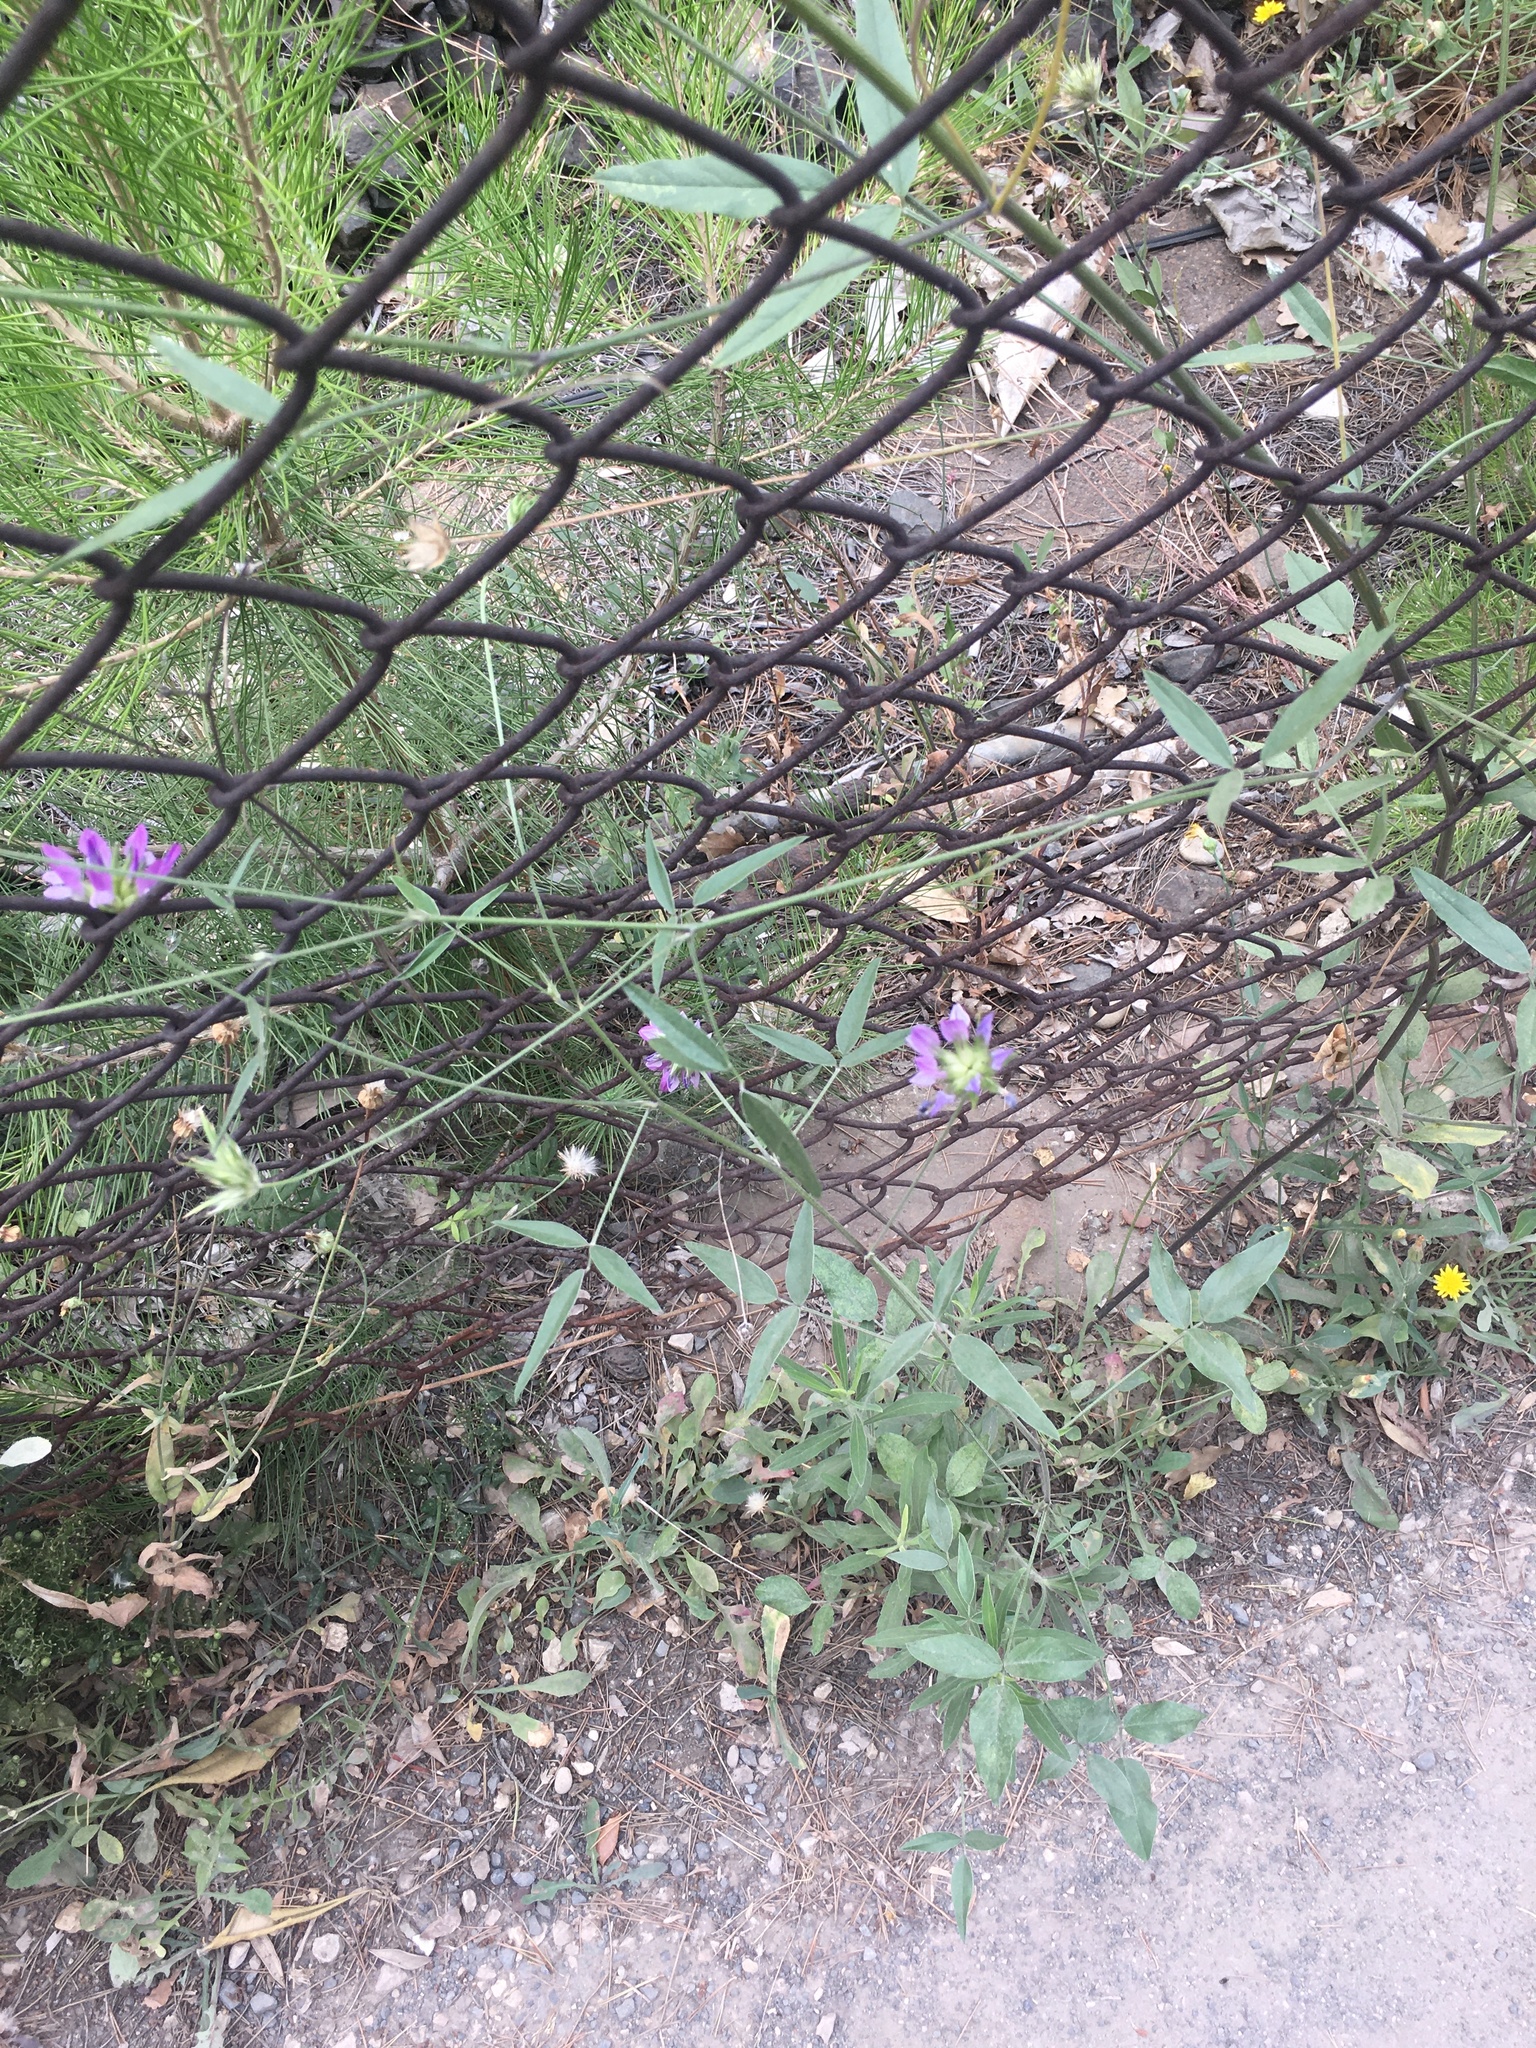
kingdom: Plantae
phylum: Tracheophyta
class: Magnoliopsida
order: Fabales
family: Fabaceae
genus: Bituminaria
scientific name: Bituminaria bituminosa
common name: Arabian pea
